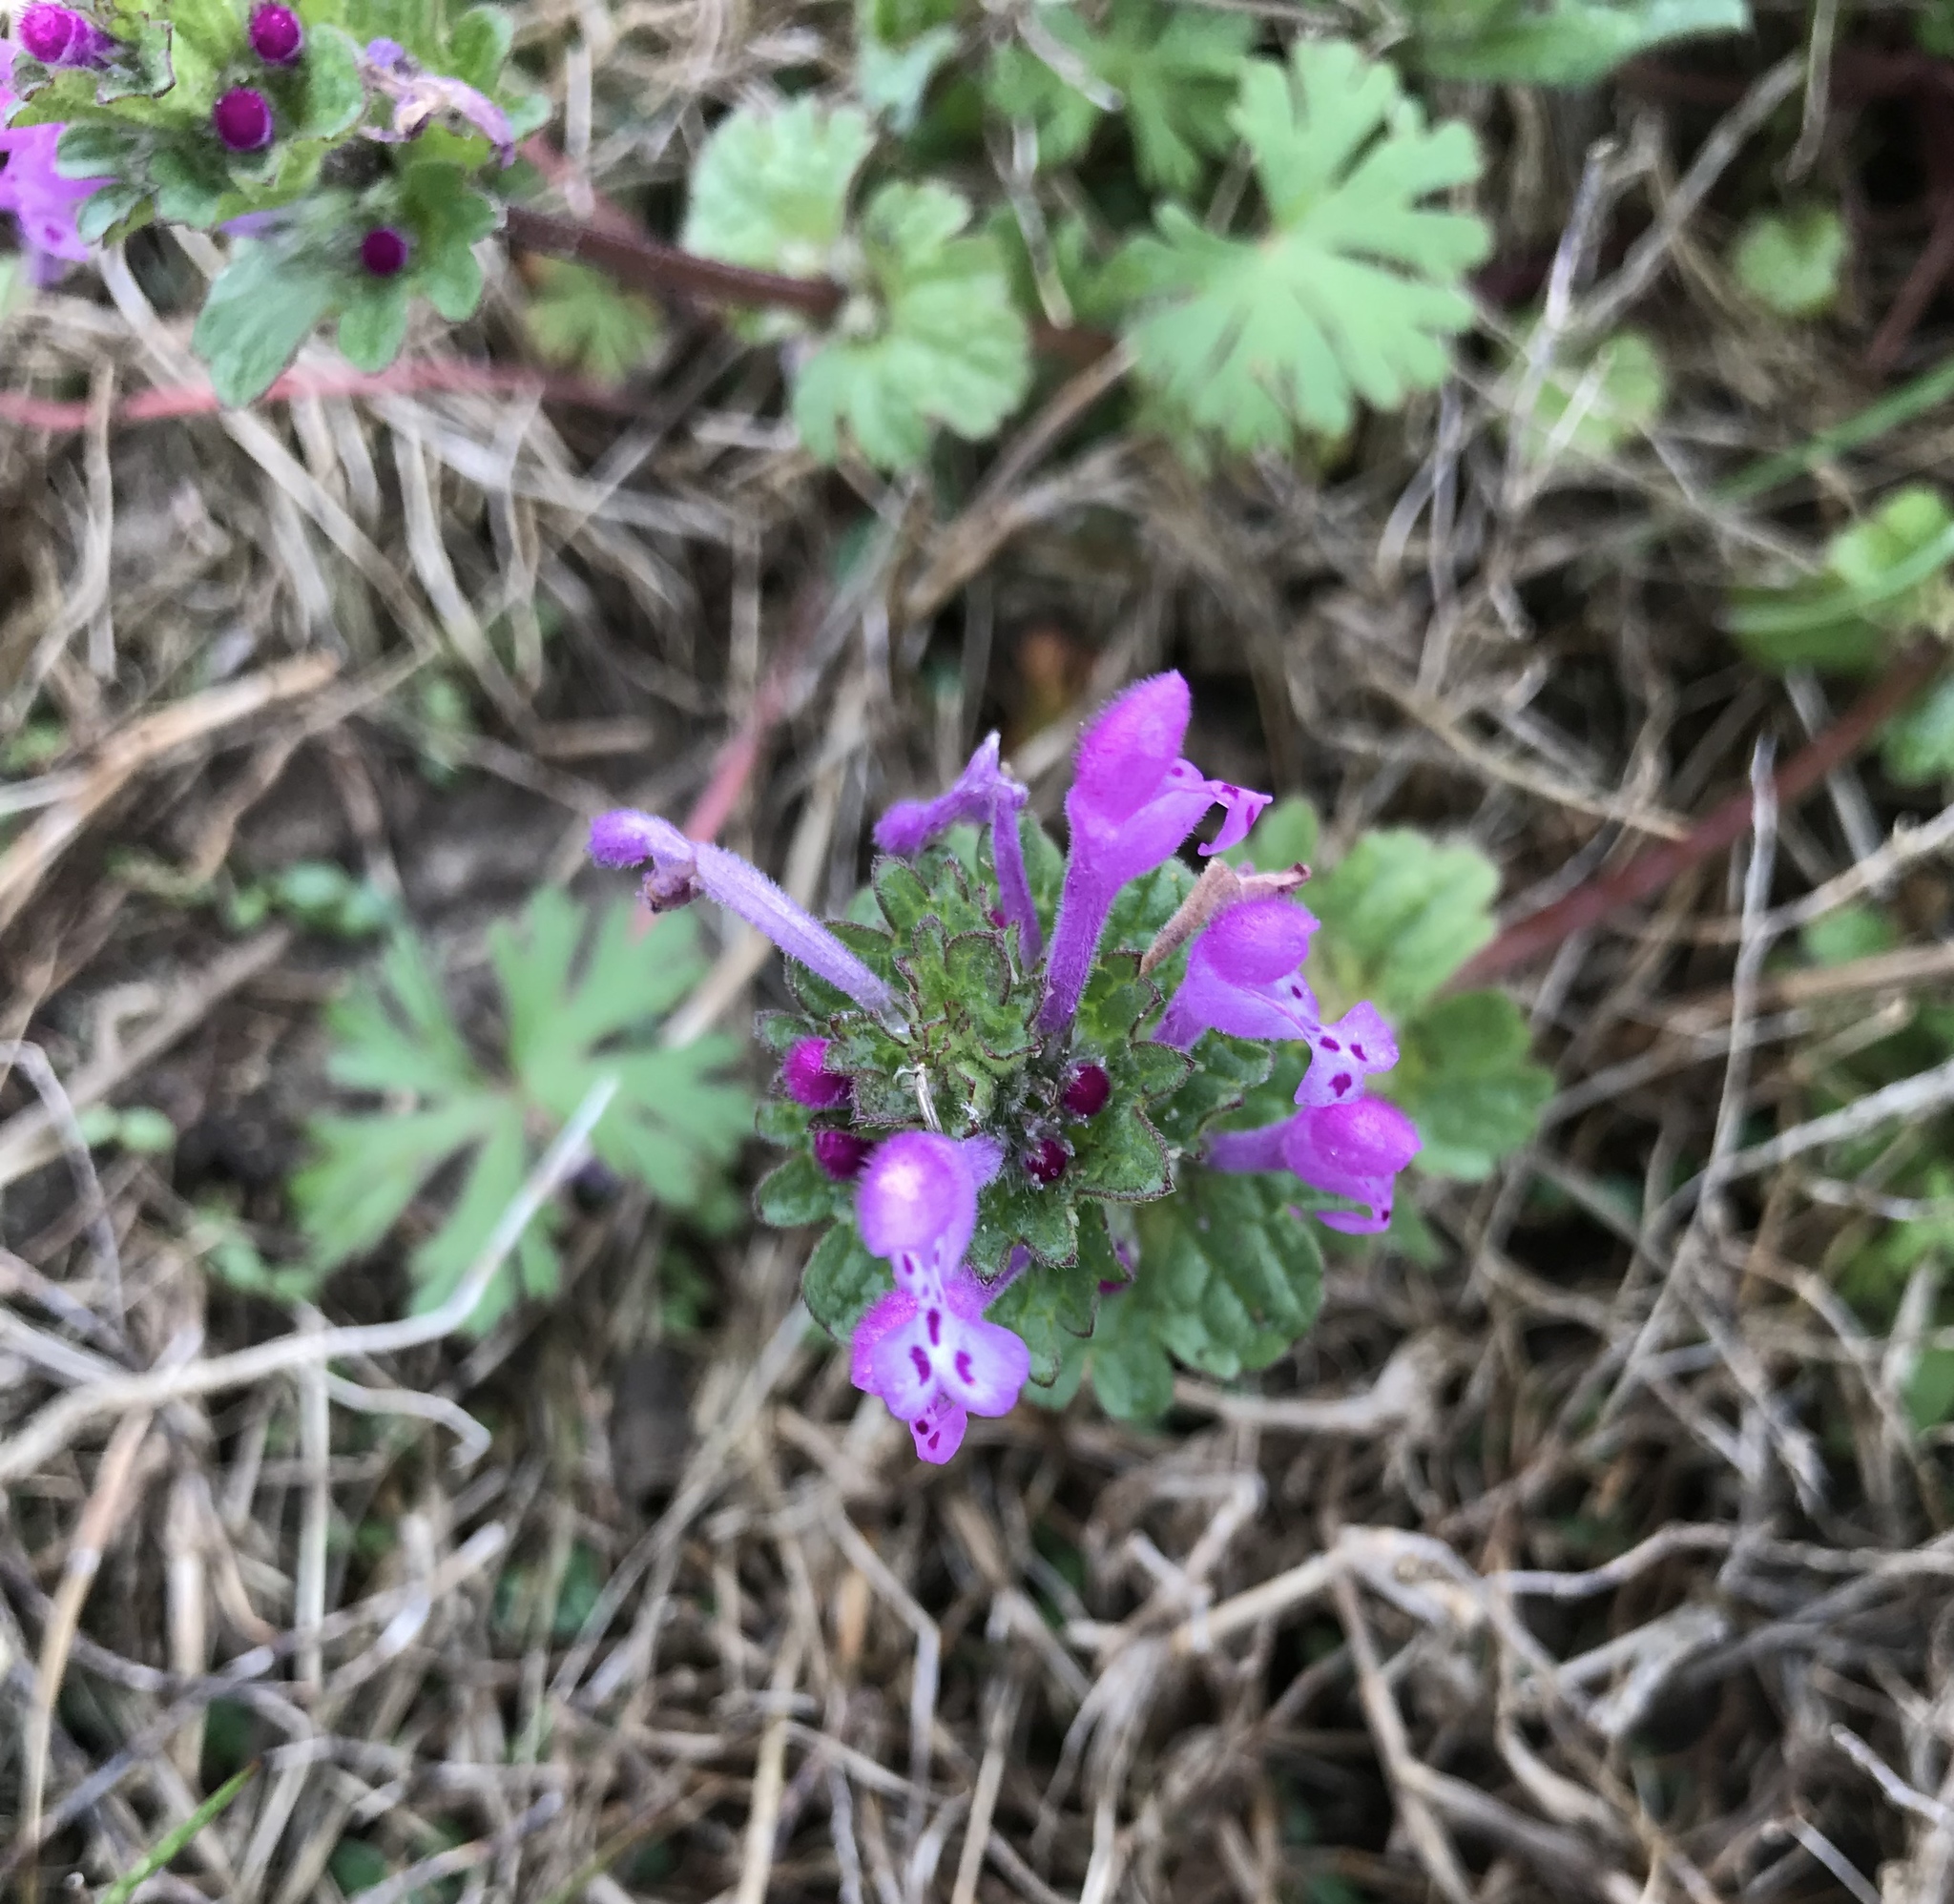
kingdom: Plantae
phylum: Tracheophyta
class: Magnoliopsida
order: Lamiales
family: Lamiaceae
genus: Lamium
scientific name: Lamium amplexicaule
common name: Henbit dead-nettle
